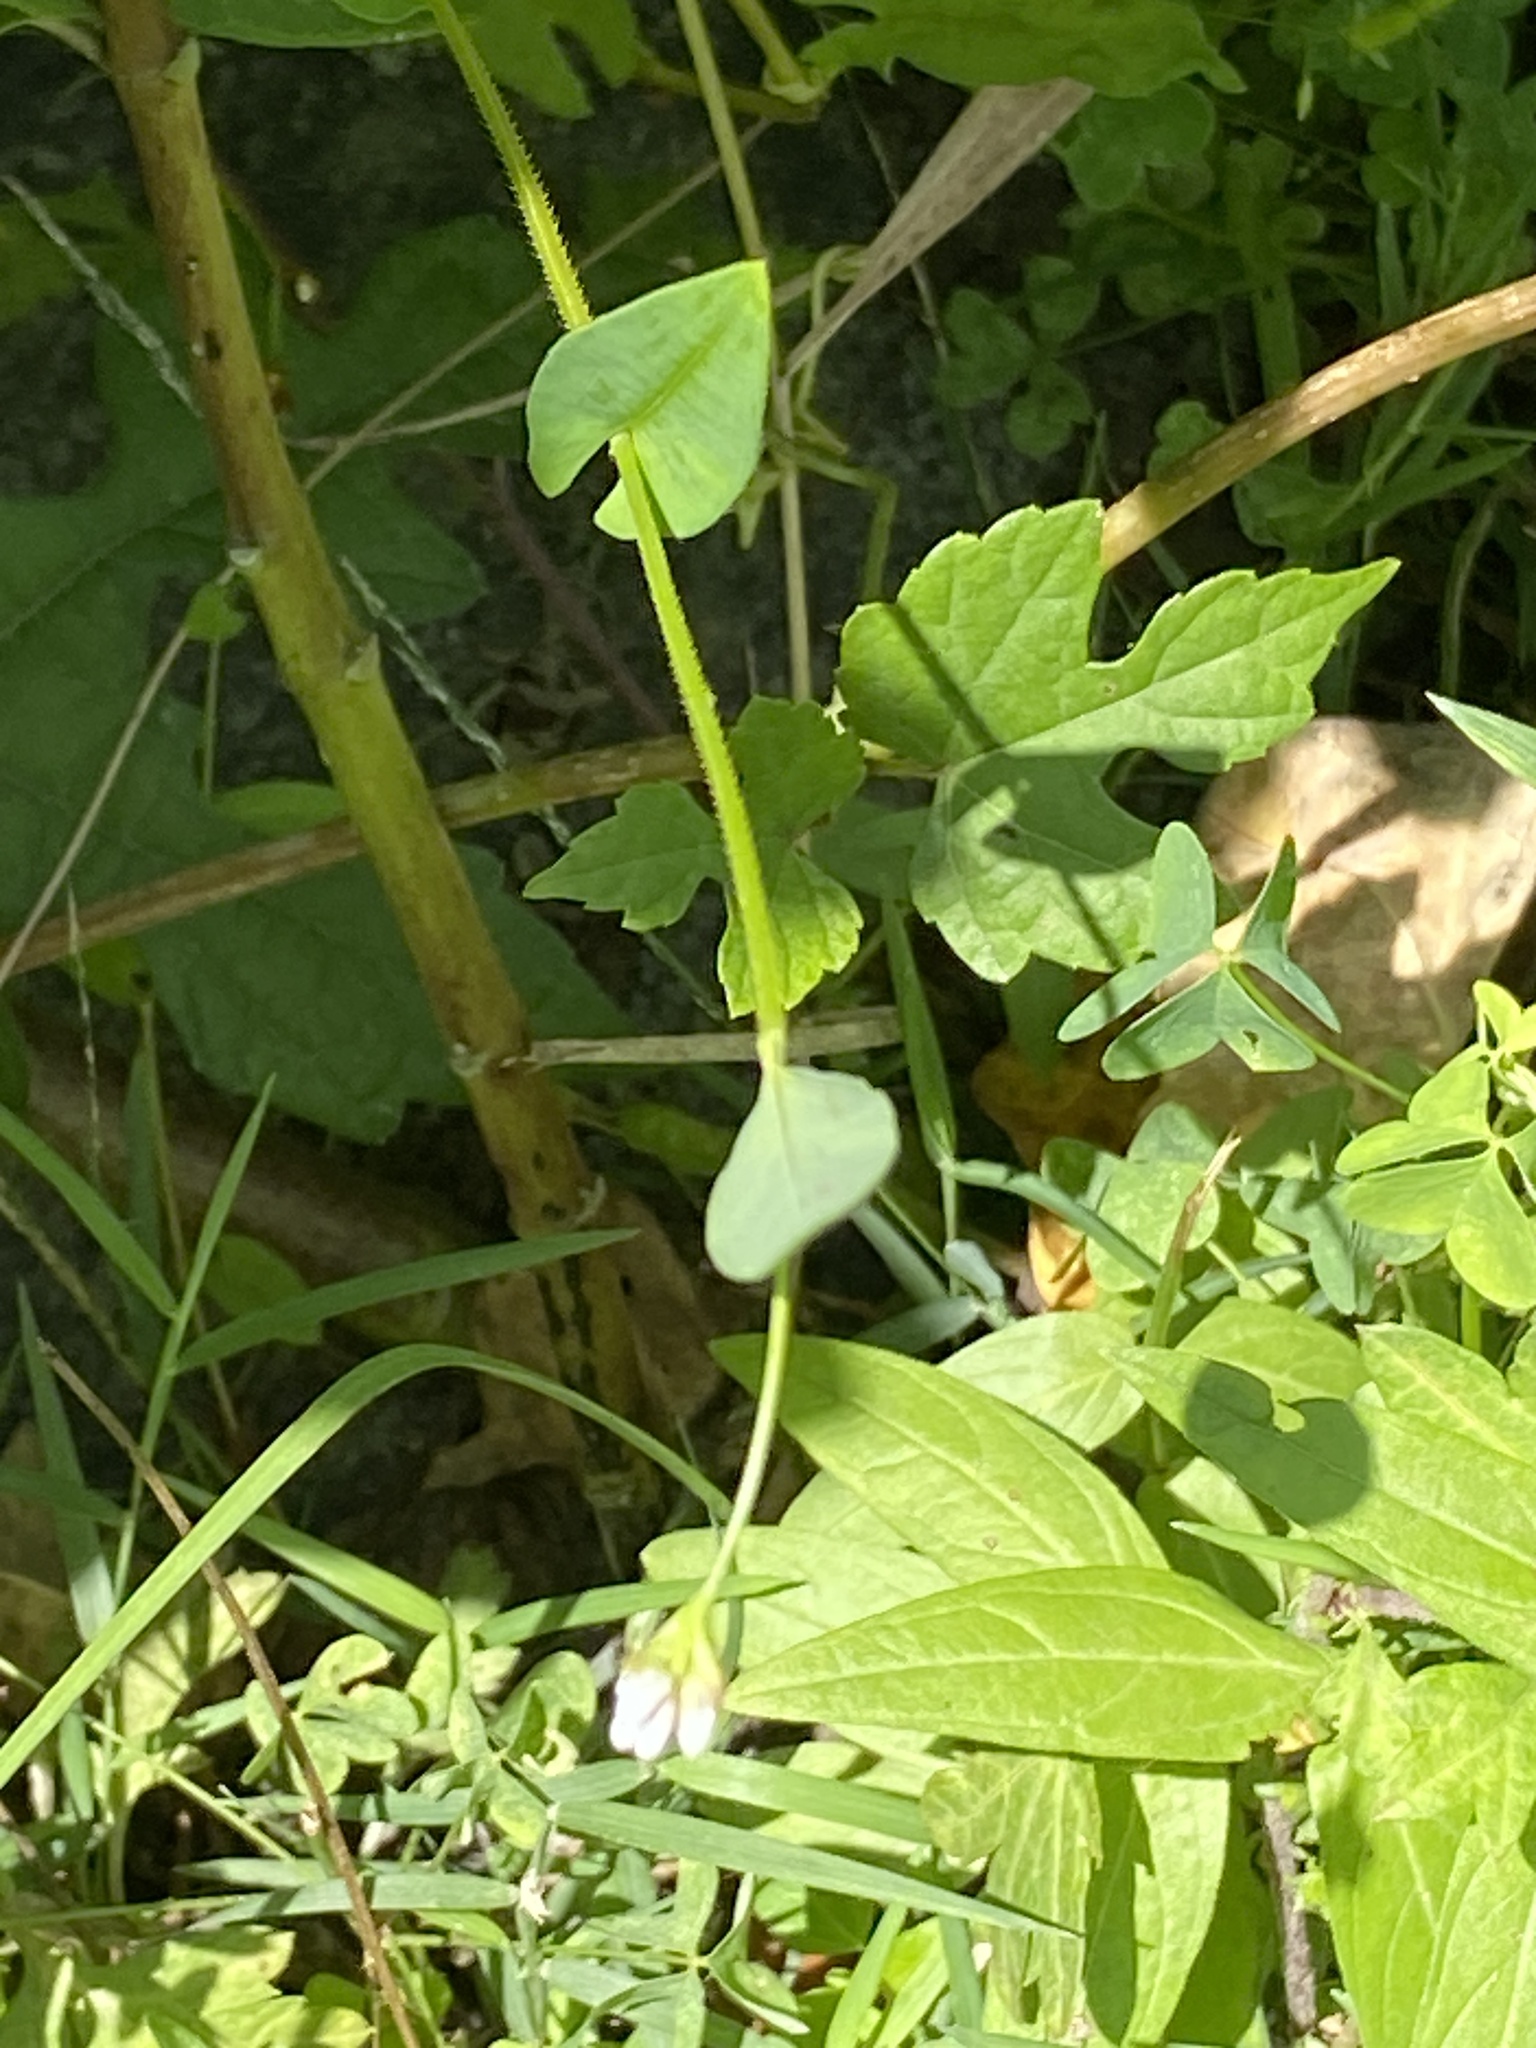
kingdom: Plantae
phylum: Tracheophyta
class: Magnoliopsida
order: Caryophyllales
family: Polygonaceae
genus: Persicaria
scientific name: Persicaria sagittata
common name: American tearthumb
